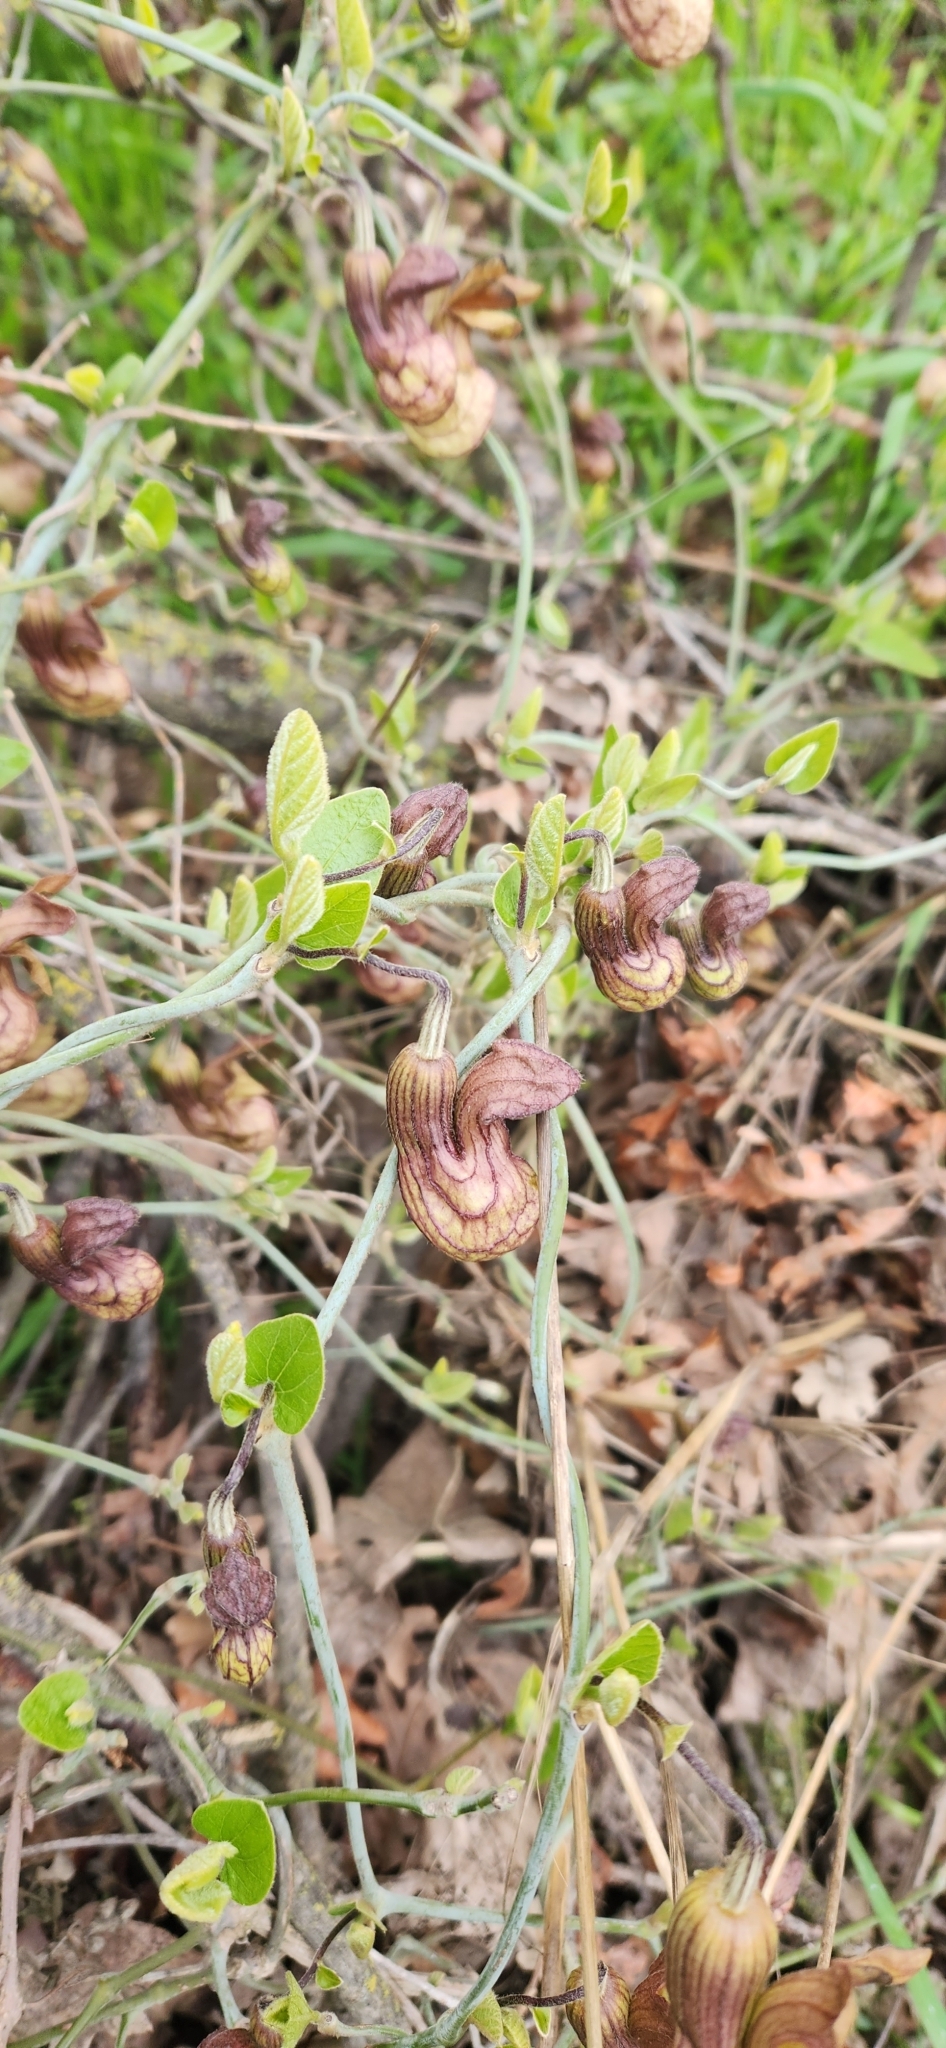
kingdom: Plantae
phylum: Tracheophyta
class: Magnoliopsida
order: Piperales
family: Aristolochiaceae
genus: Isotrema
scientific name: Isotrema californicum
